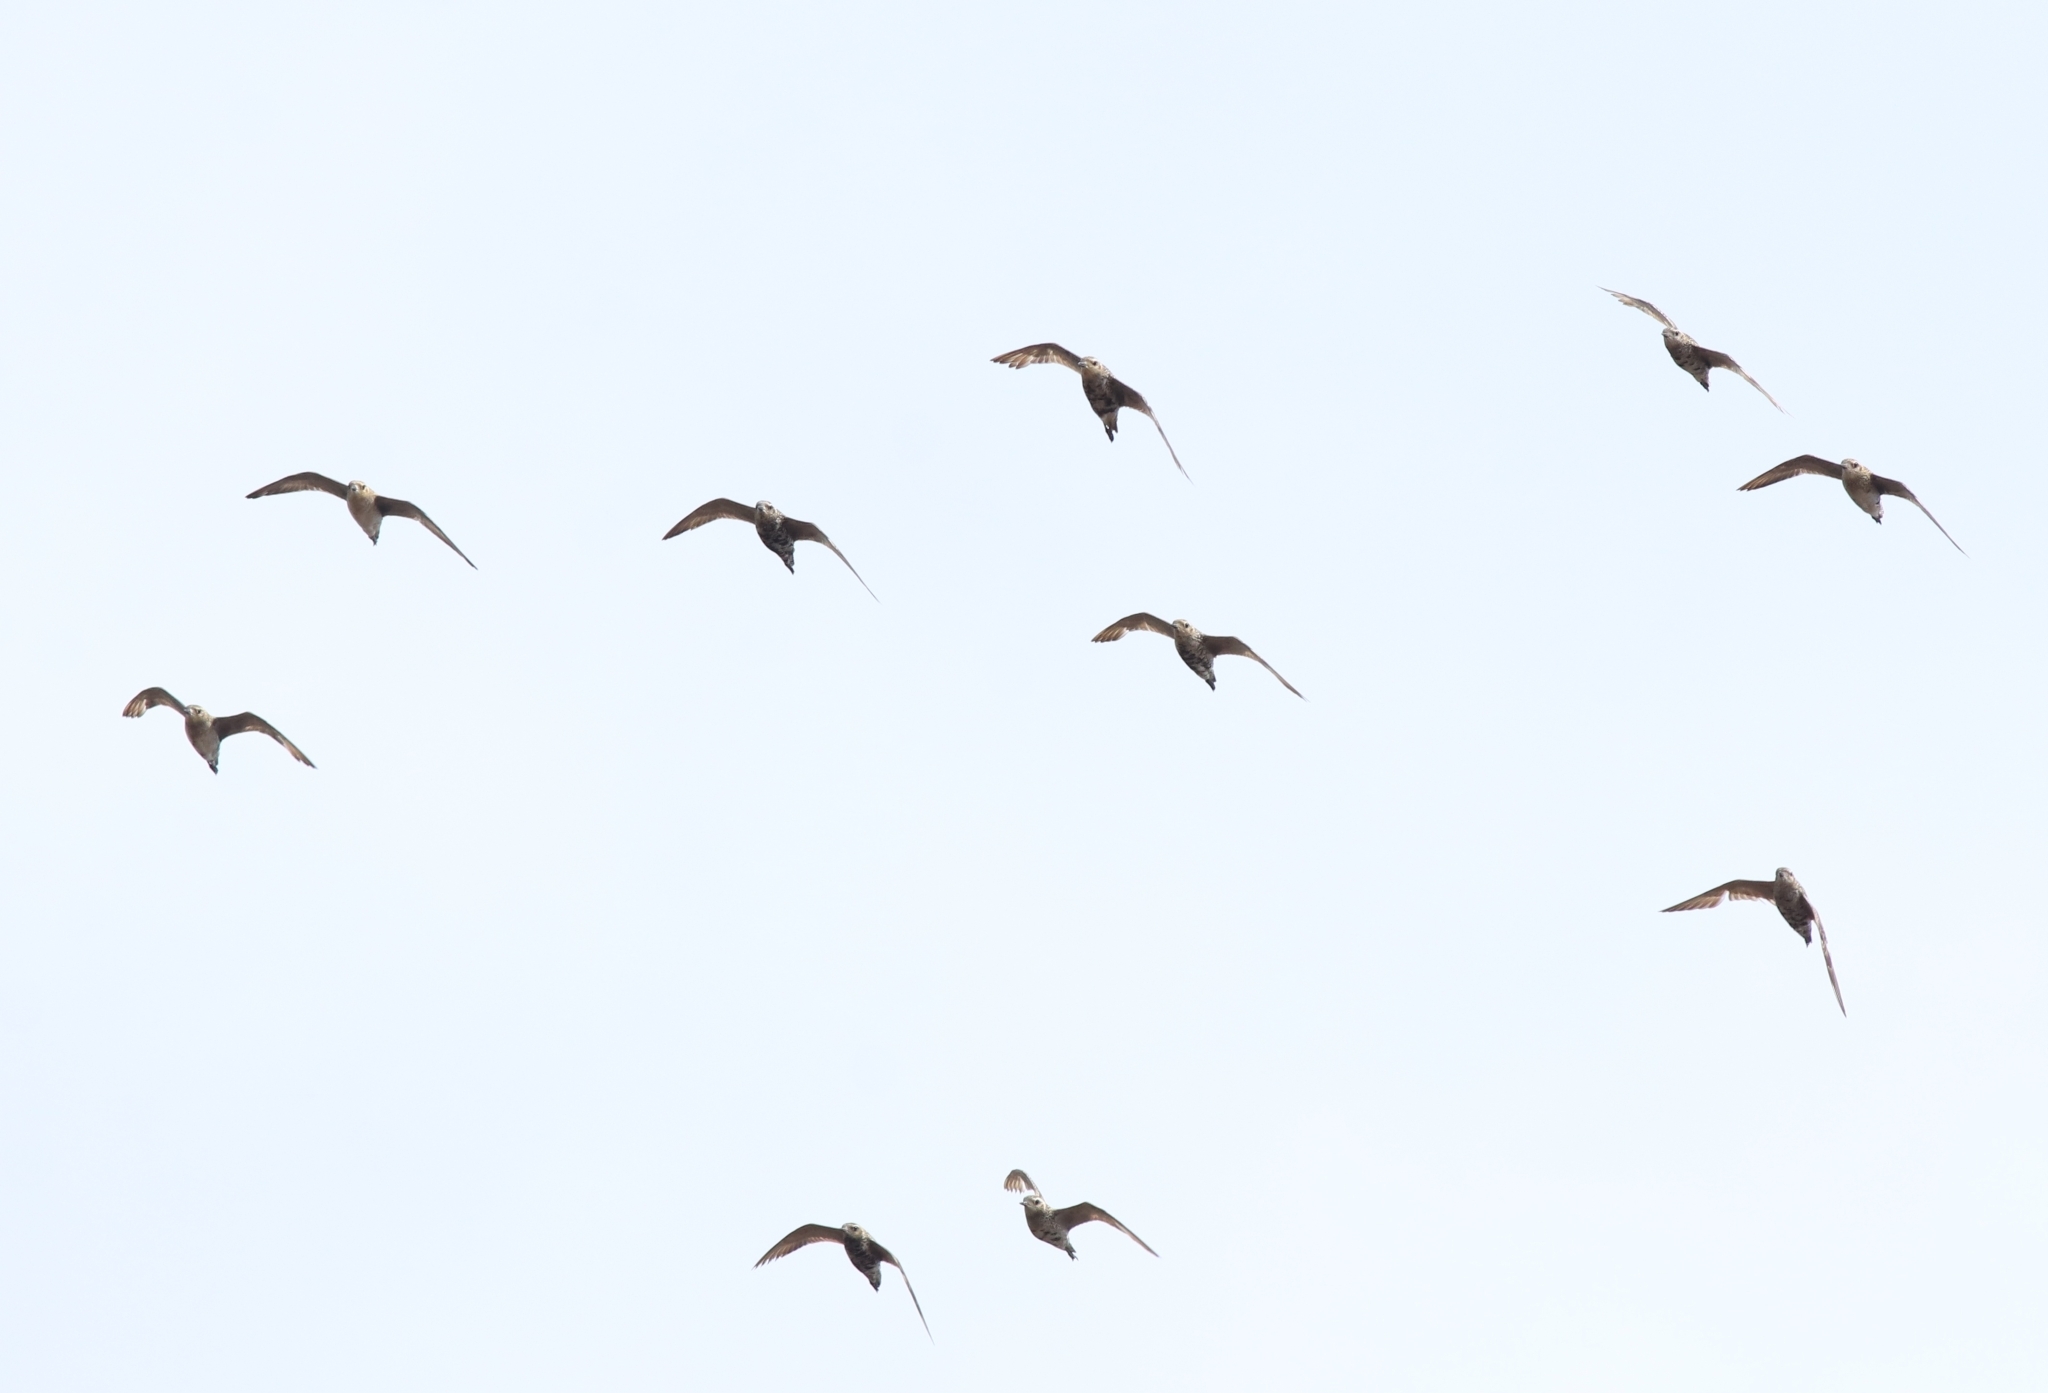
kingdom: Animalia
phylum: Chordata
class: Aves
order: Charadriiformes
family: Charadriidae
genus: Pluvialis
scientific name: Pluvialis fulva
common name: Pacific golden plover
